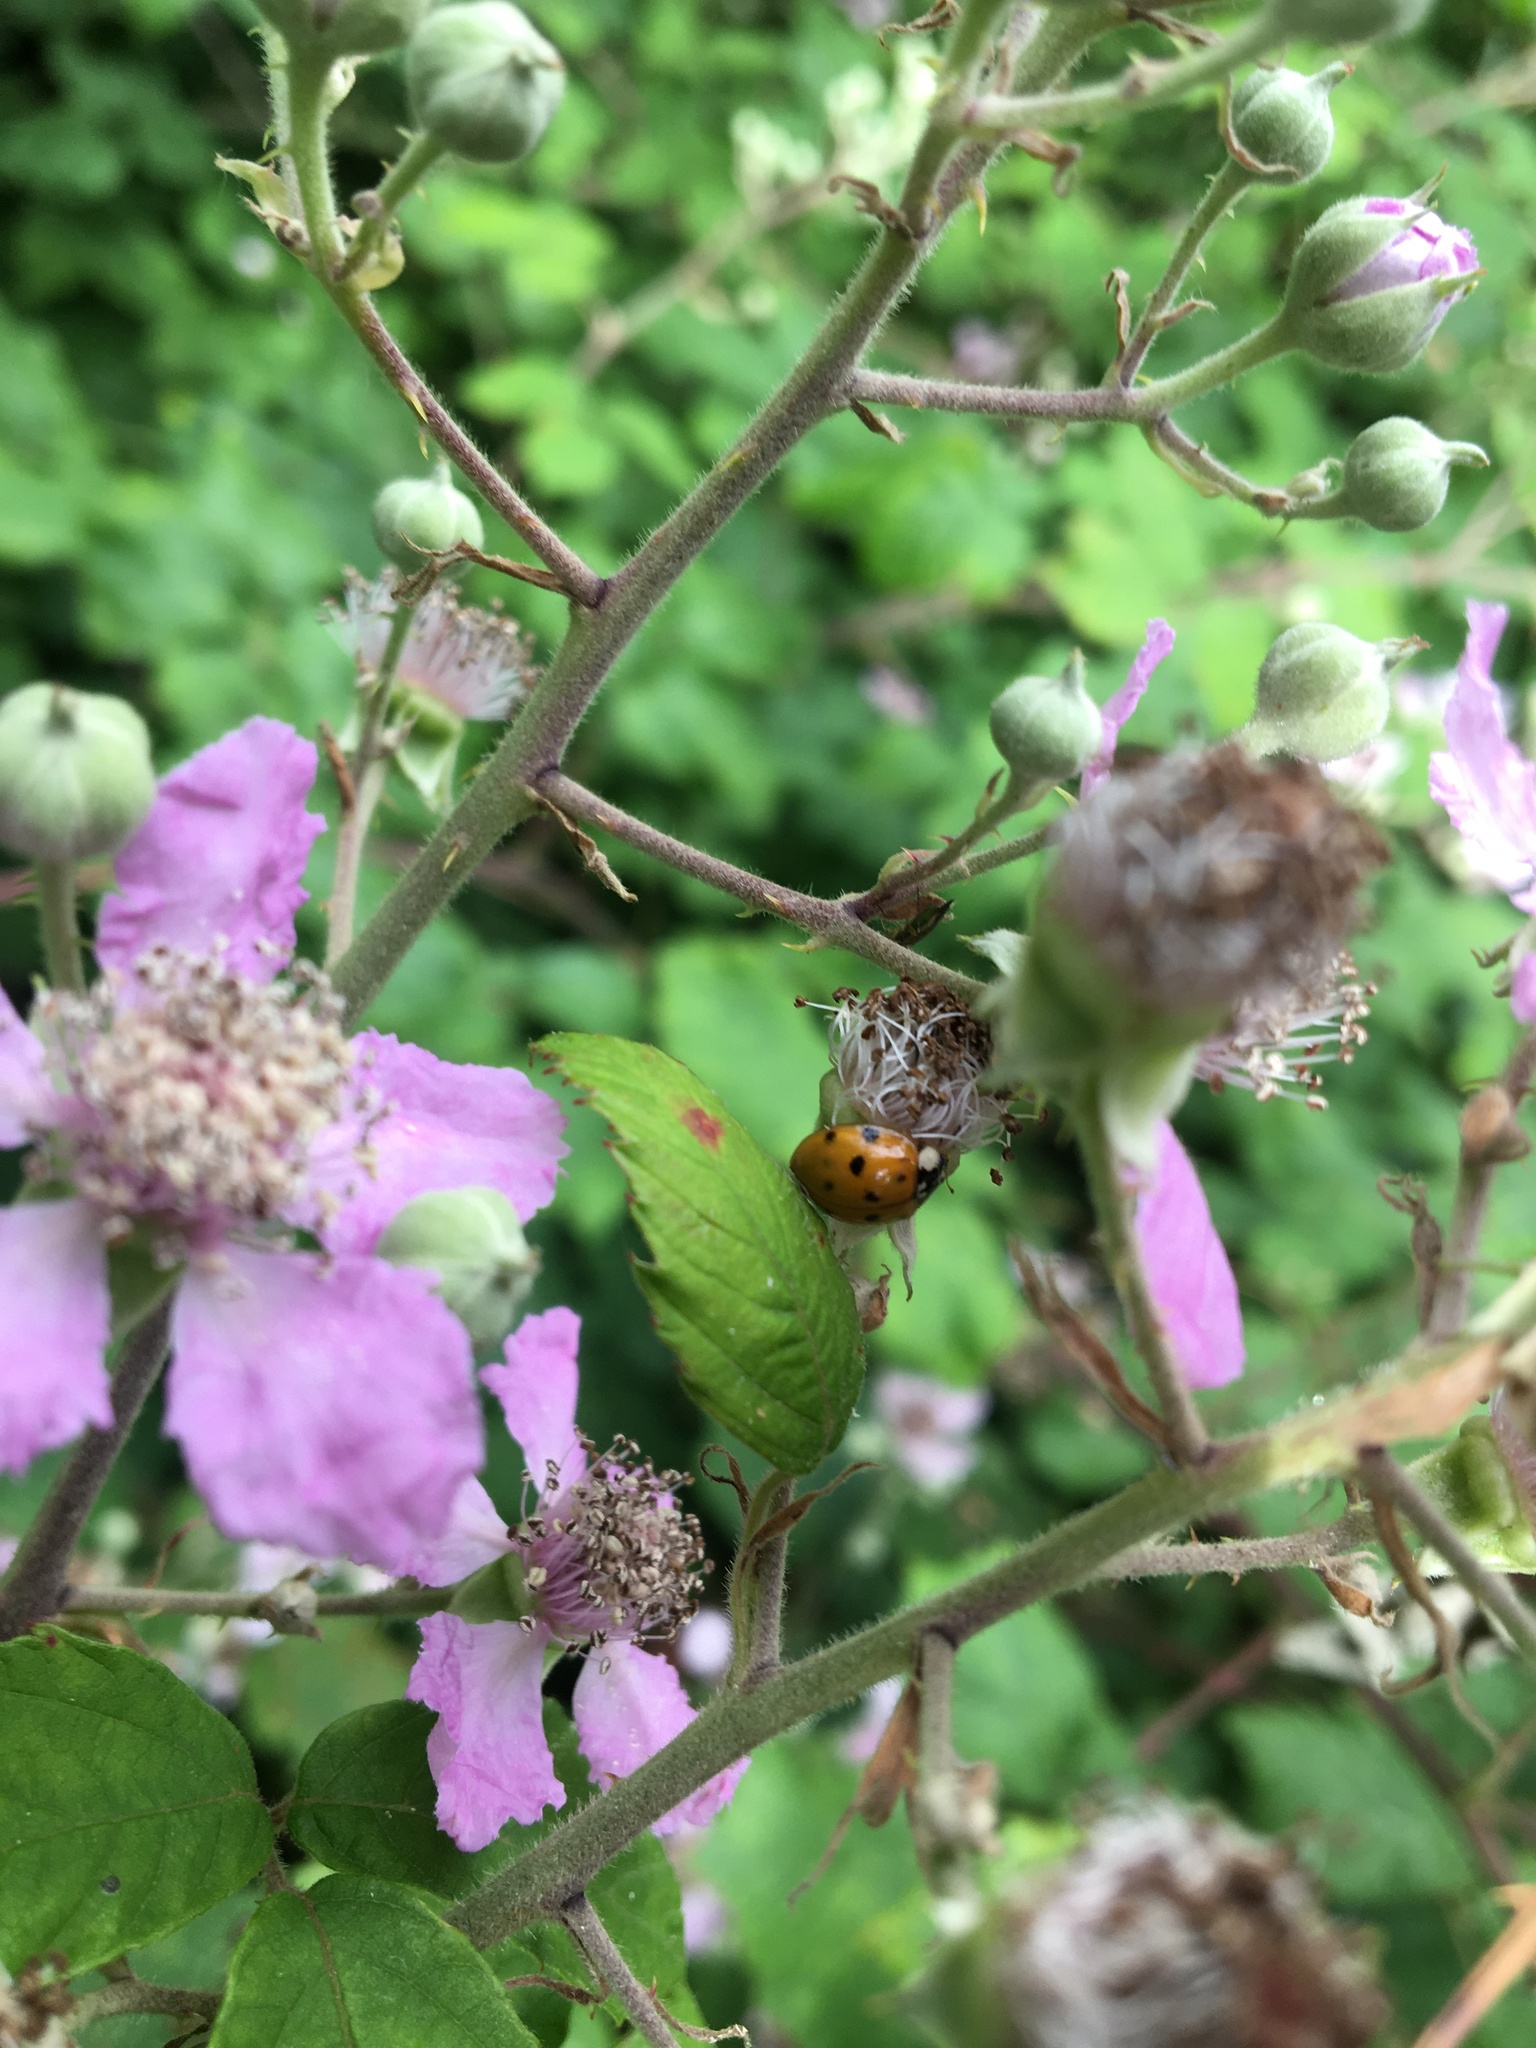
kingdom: Animalia
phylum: Arthropoda
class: Insecta
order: Coleoptera
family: Coccinellidae
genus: Harmonia
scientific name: Harmonia axyridis
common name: Harlequin ladybird
